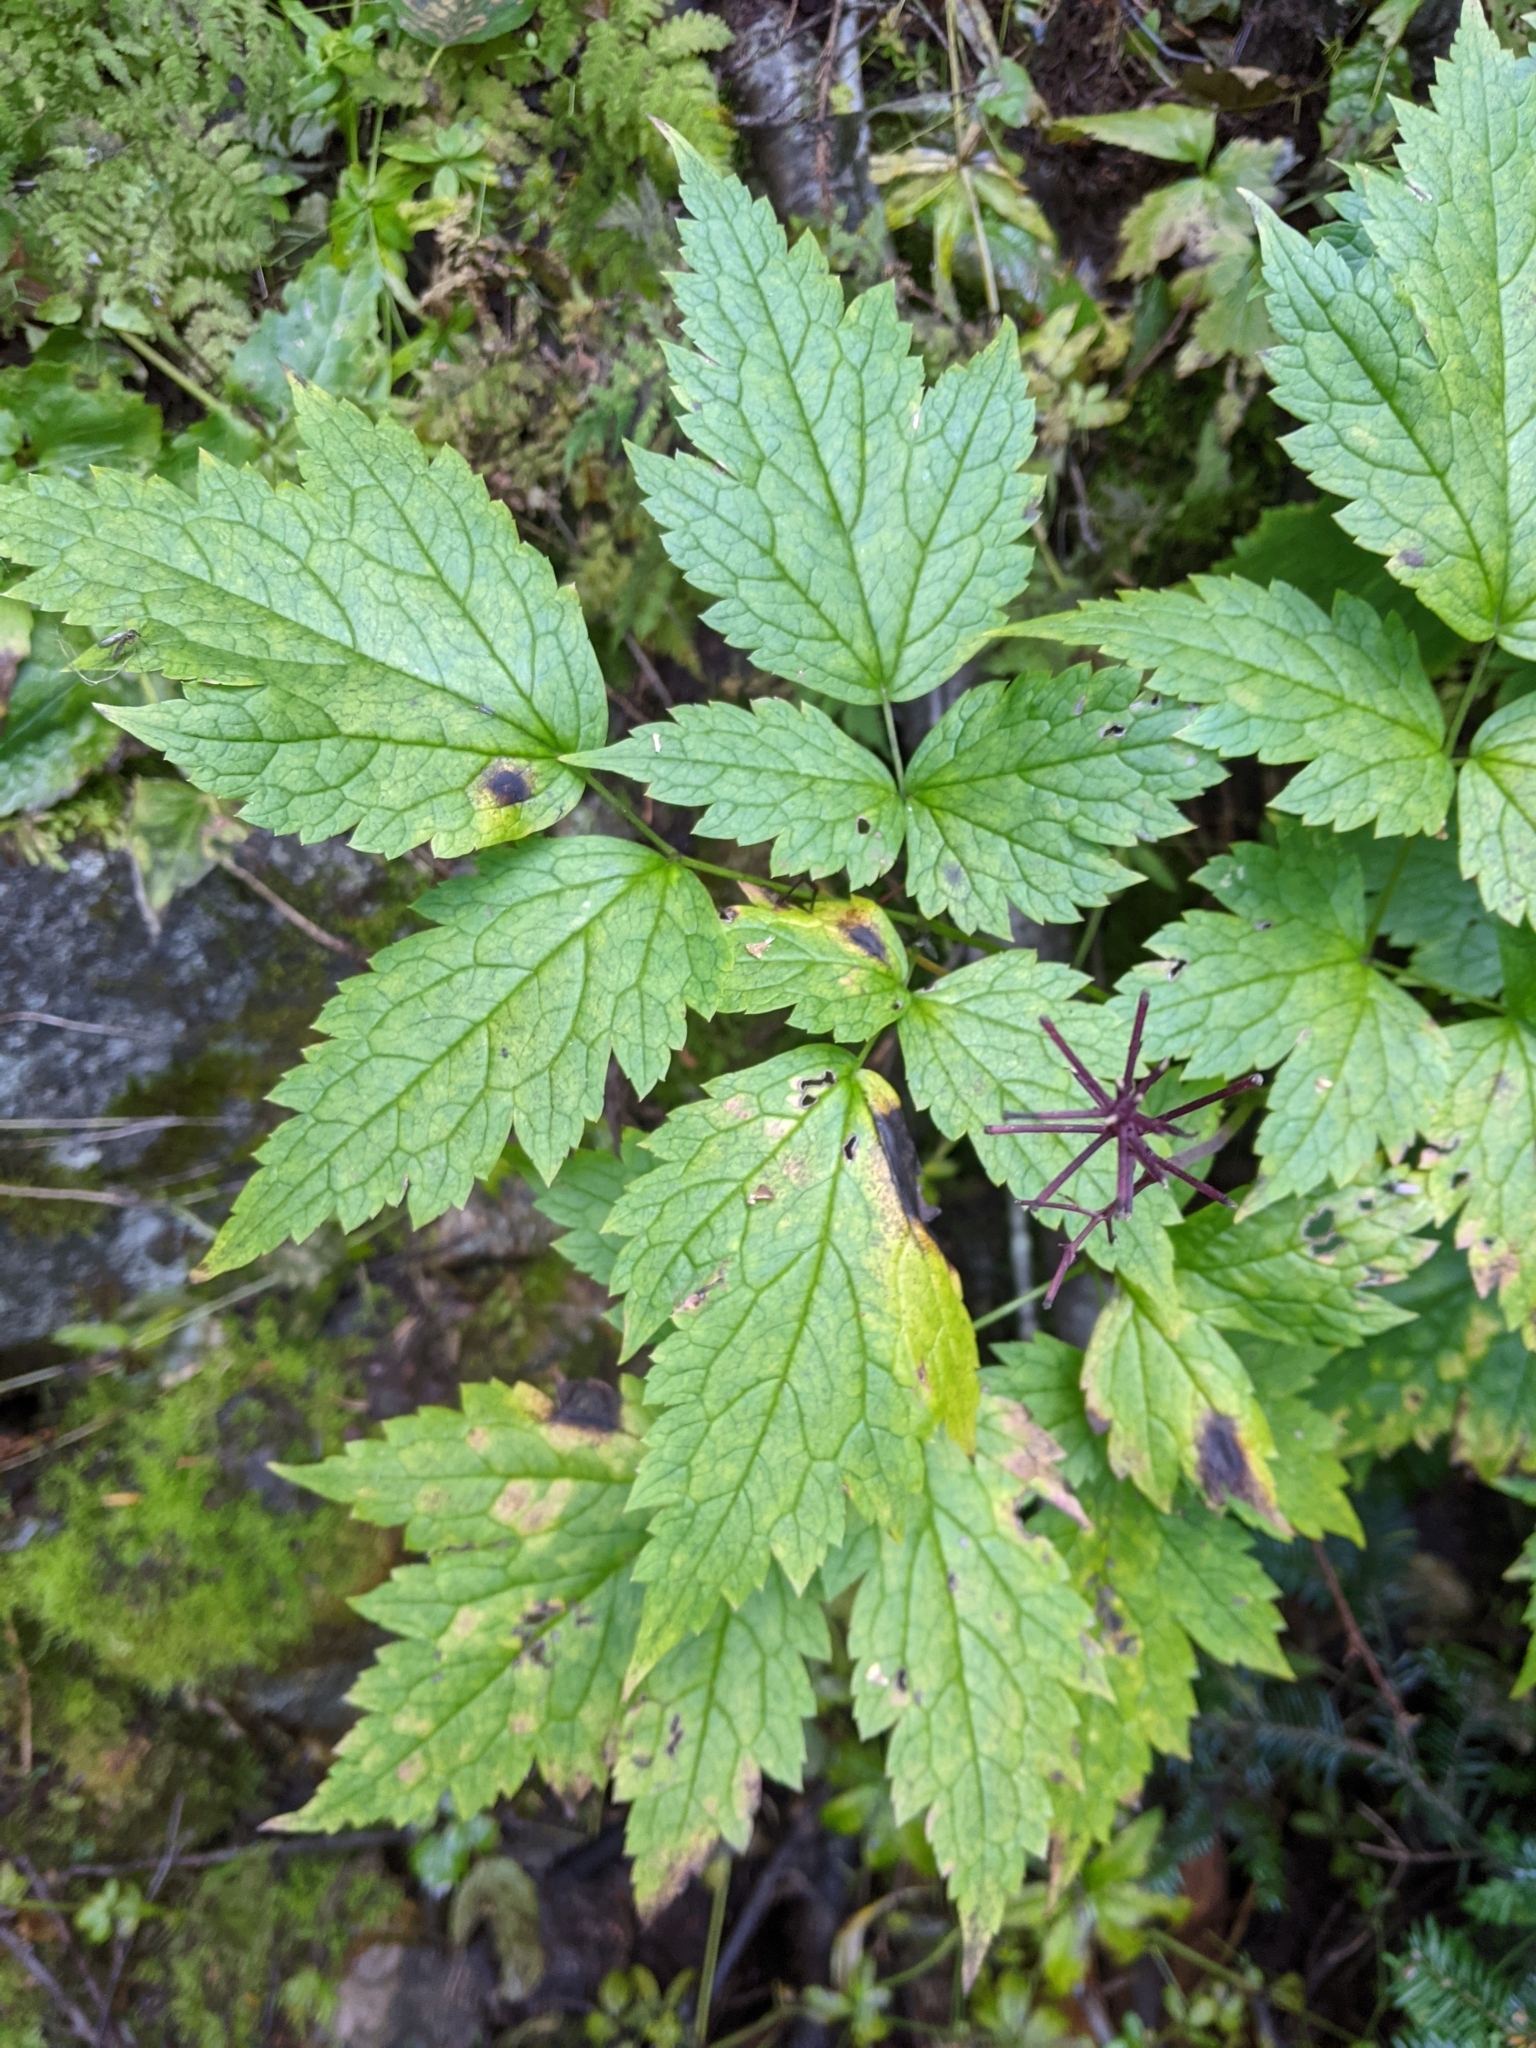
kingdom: Plantae
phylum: Tracheophyta
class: Magnoliopsida
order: Ranunculales
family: Ranunculaceae
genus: Actaea
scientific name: Actaea rubra
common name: Red baneberry
